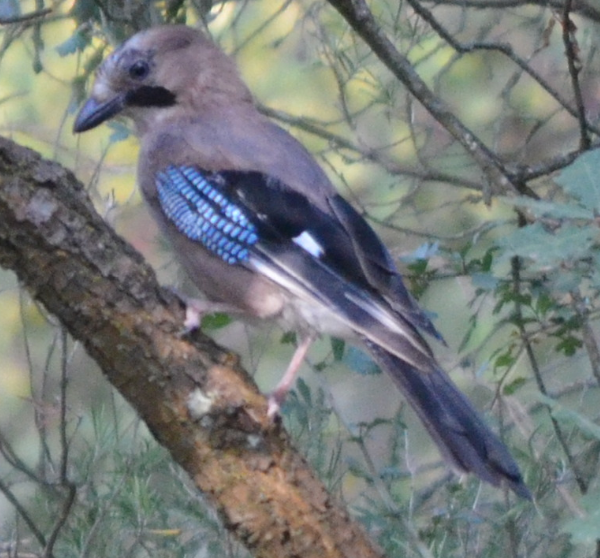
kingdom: Animalia
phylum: Chordata
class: Aves
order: Passeriformes
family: Corvidae
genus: Garrulus
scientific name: Garrulus glandarius
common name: Eurasian jay
